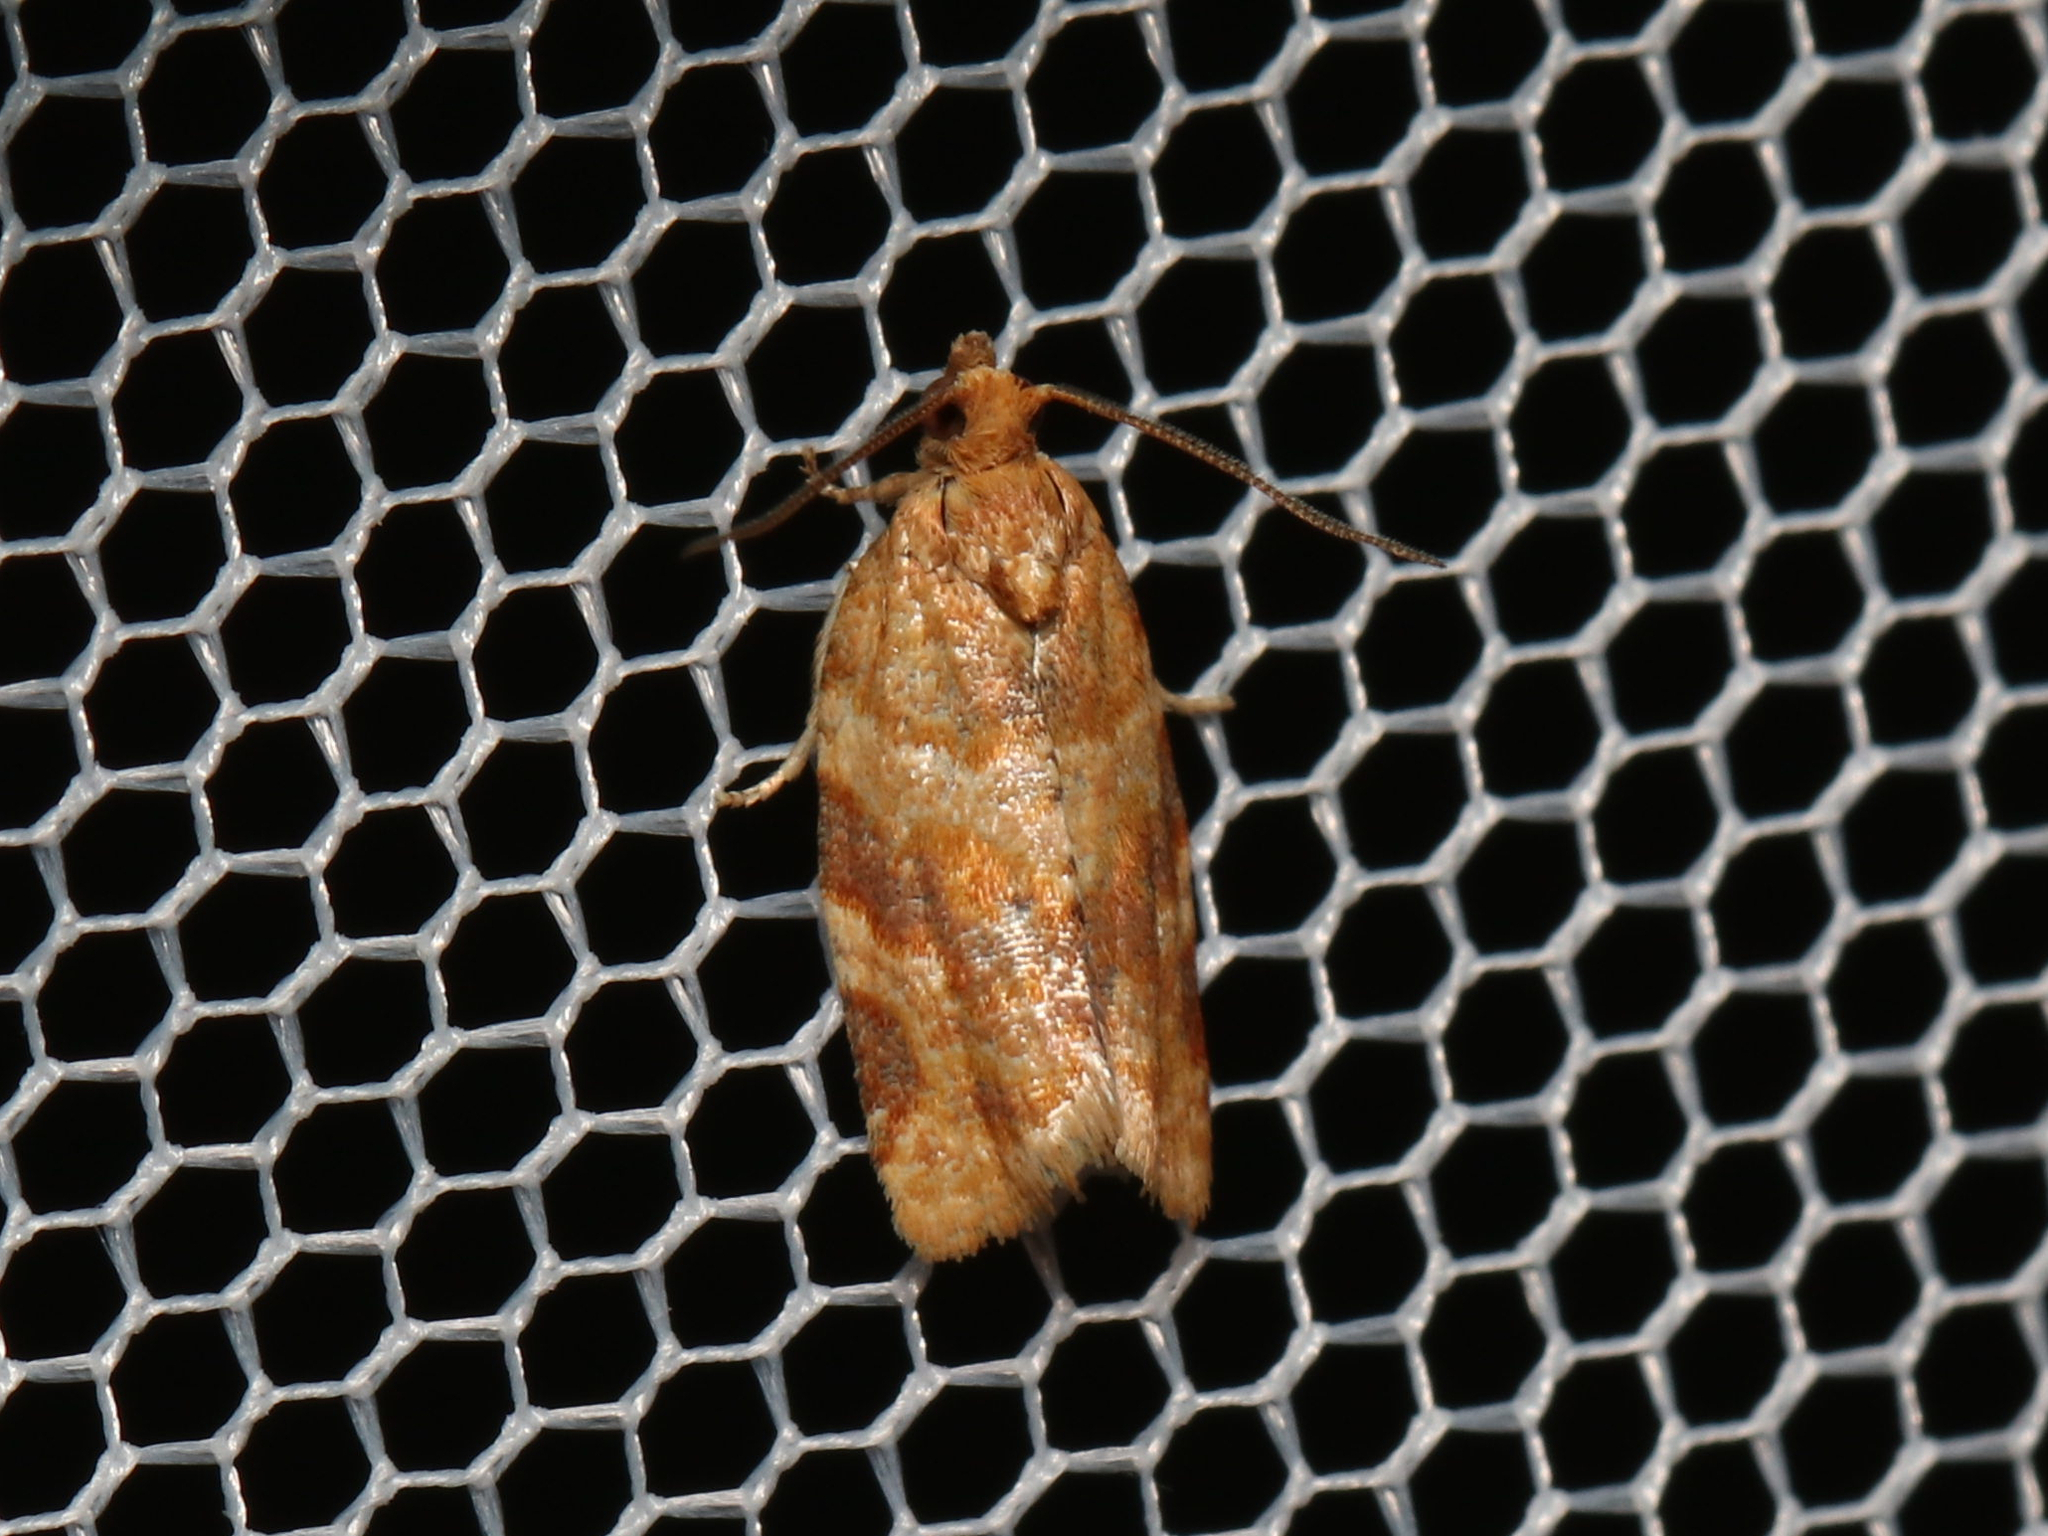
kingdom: Animalia
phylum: Arthropoda
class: Insecta
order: Lepidoptera
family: Tortricidae
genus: Argyrotaenia
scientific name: Argyrotaenia pinatubana
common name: Pine tube moth
